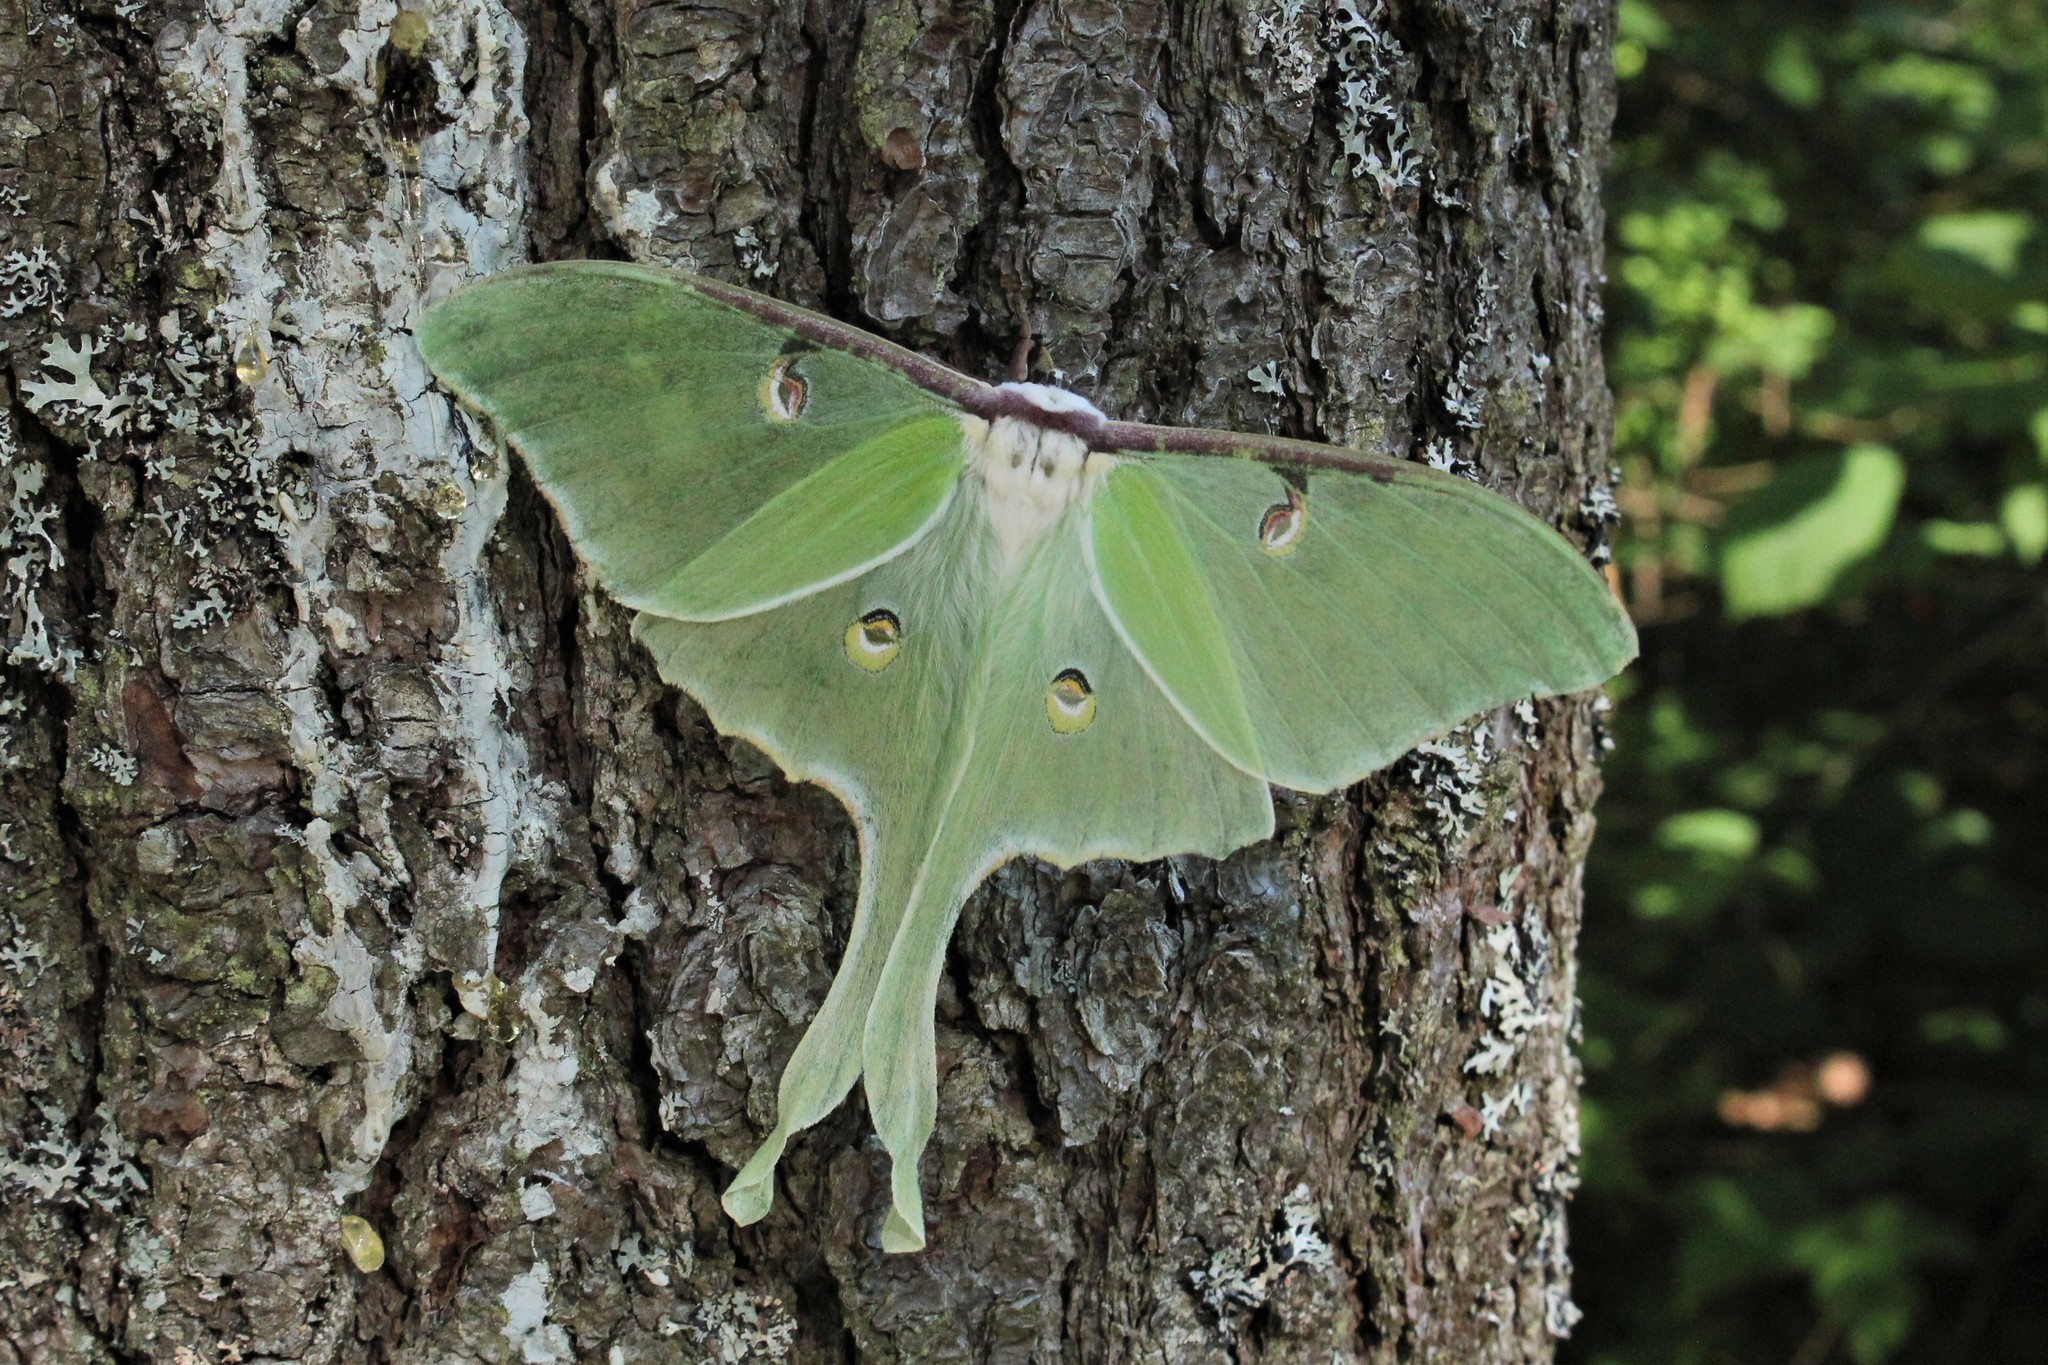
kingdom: Animalia
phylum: Arthropoda
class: Insecta
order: Lepidoptera
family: Saturniidae
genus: Actias
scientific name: Actias luna
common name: Luna moth
